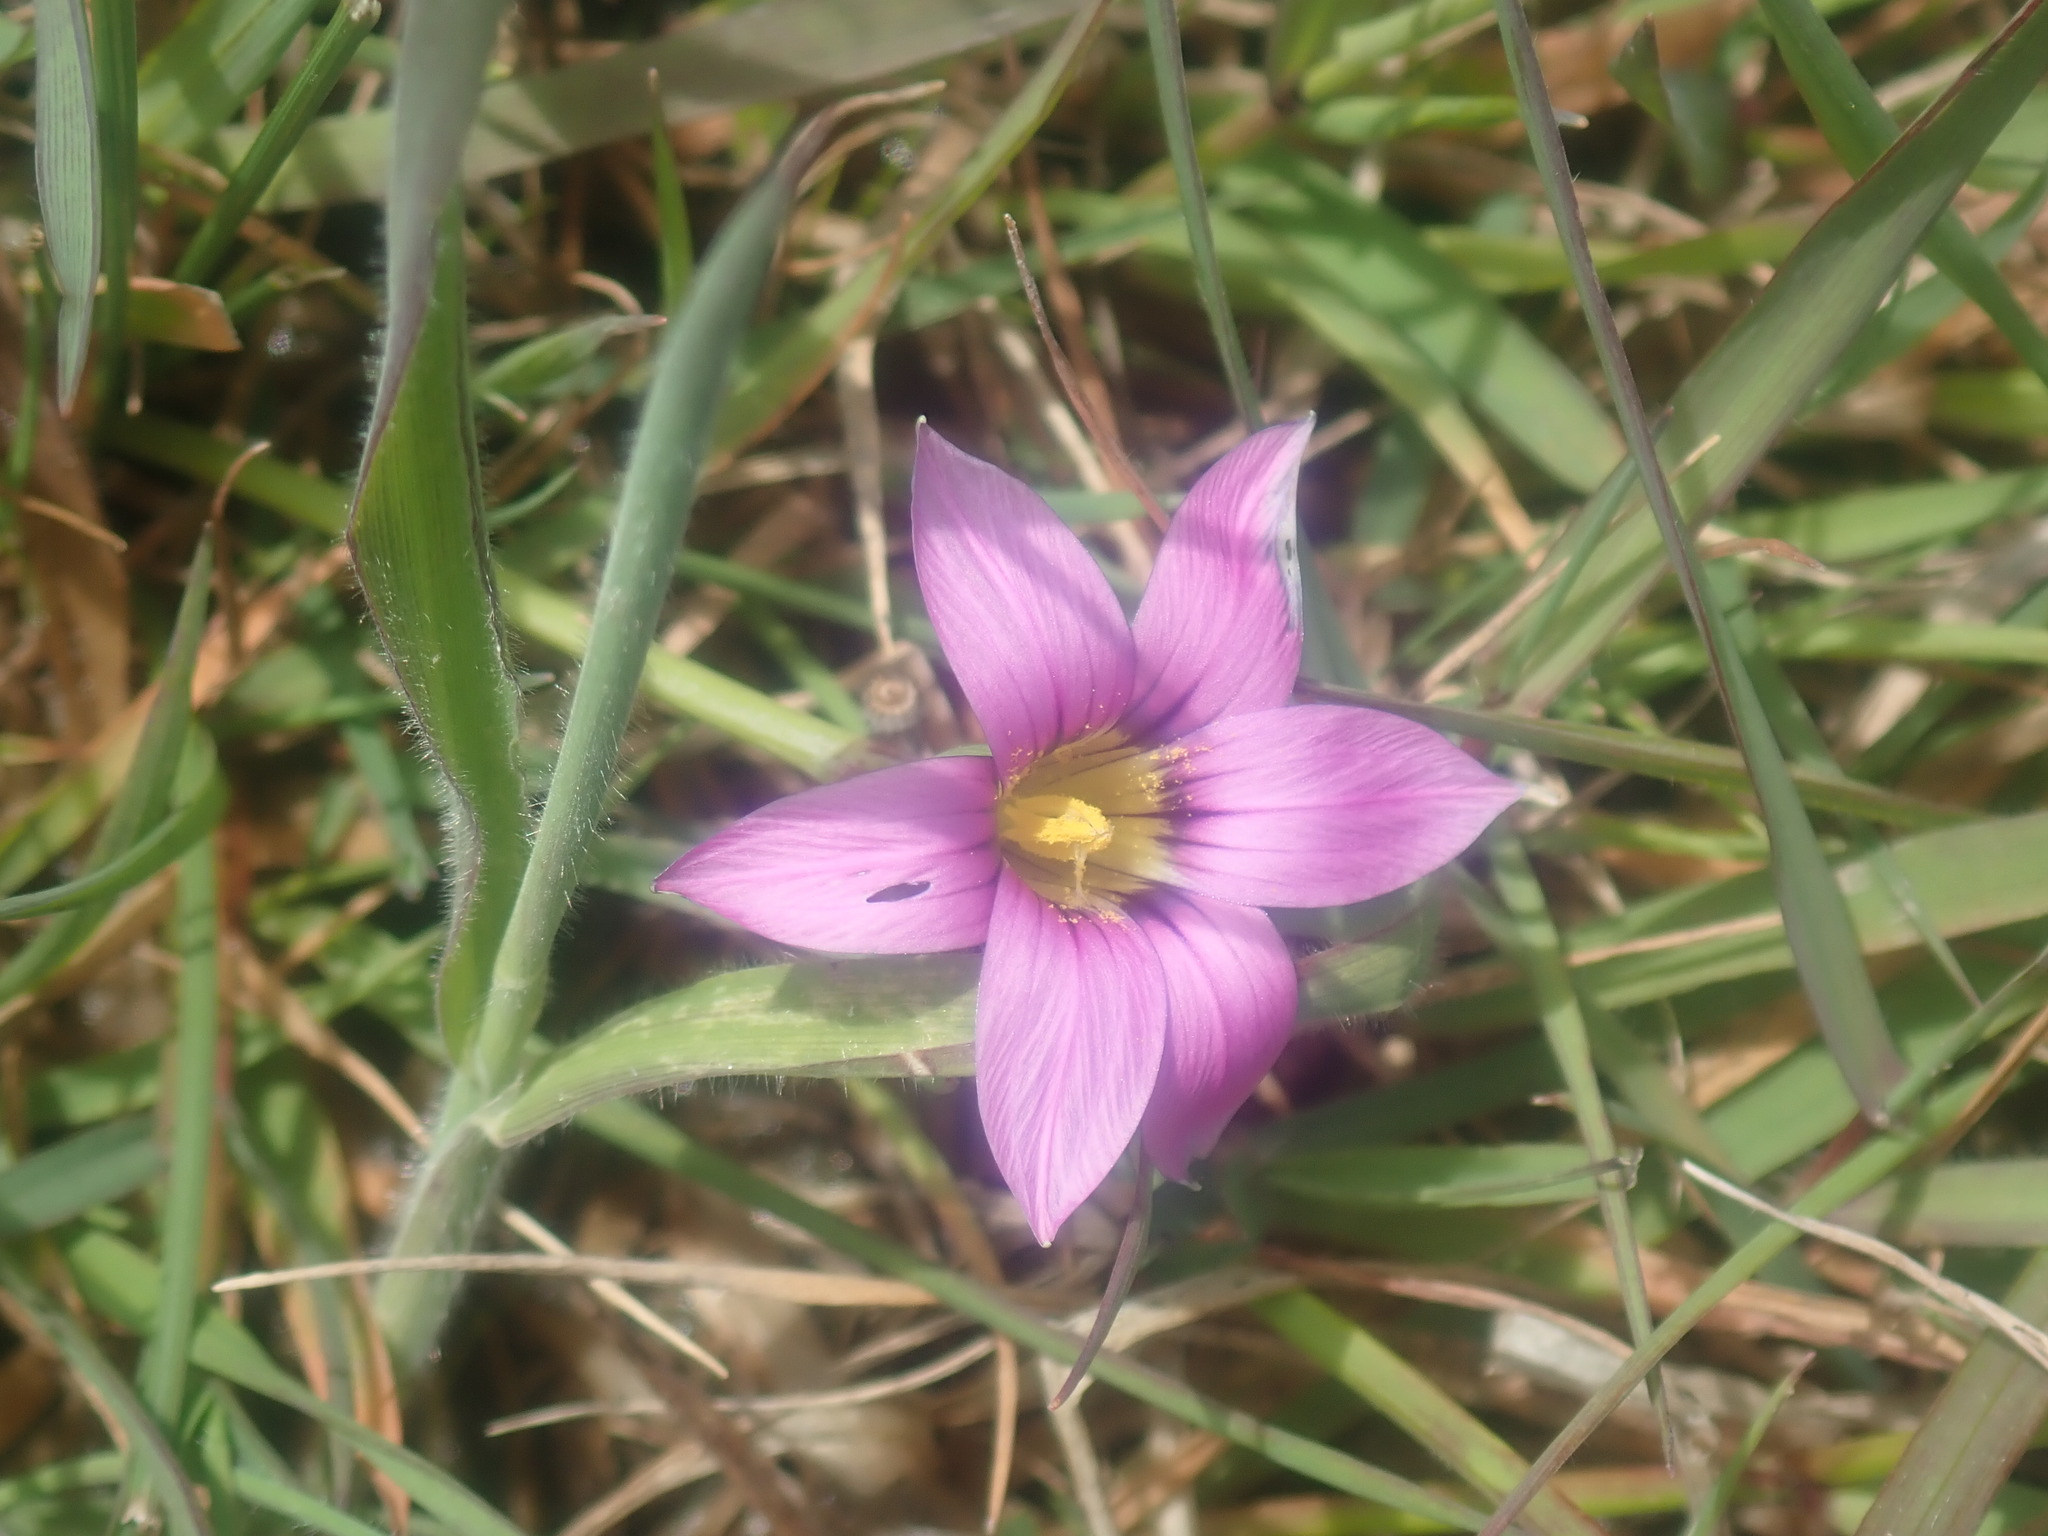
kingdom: Plantae
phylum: Tracheophyta
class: Liliopsida
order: Asparagales
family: Iridaceae
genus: Romulea
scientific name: Romulea rosea
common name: Oniongrass
